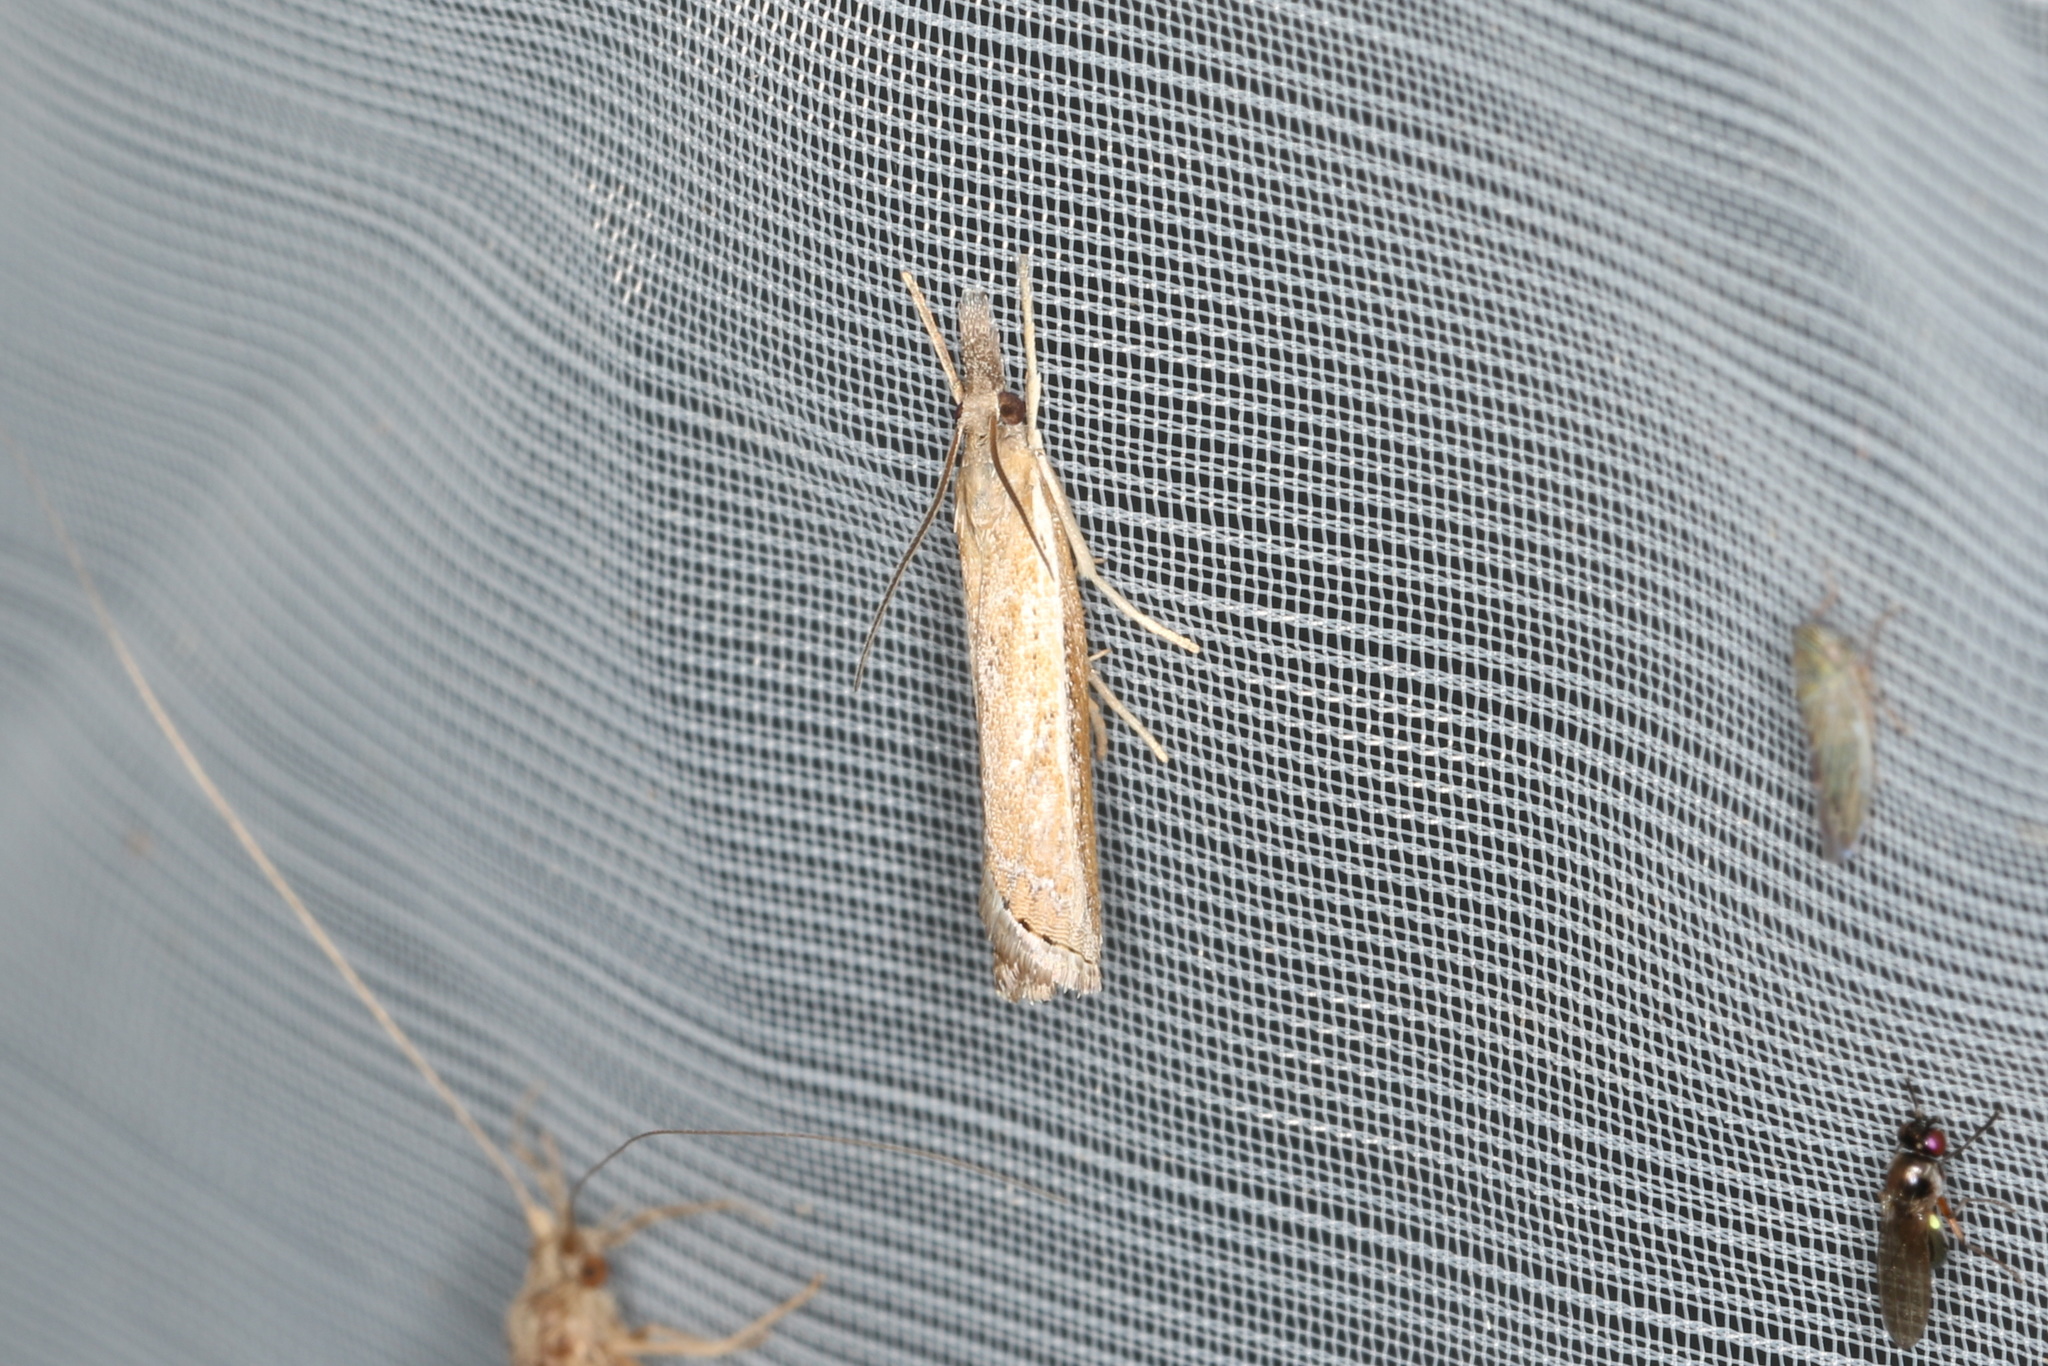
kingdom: Animalia
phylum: Arthropoda
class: Insecta
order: Lepidoptera
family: Crambidae
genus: Ptochostola
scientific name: Ptochostola microphaeellus
